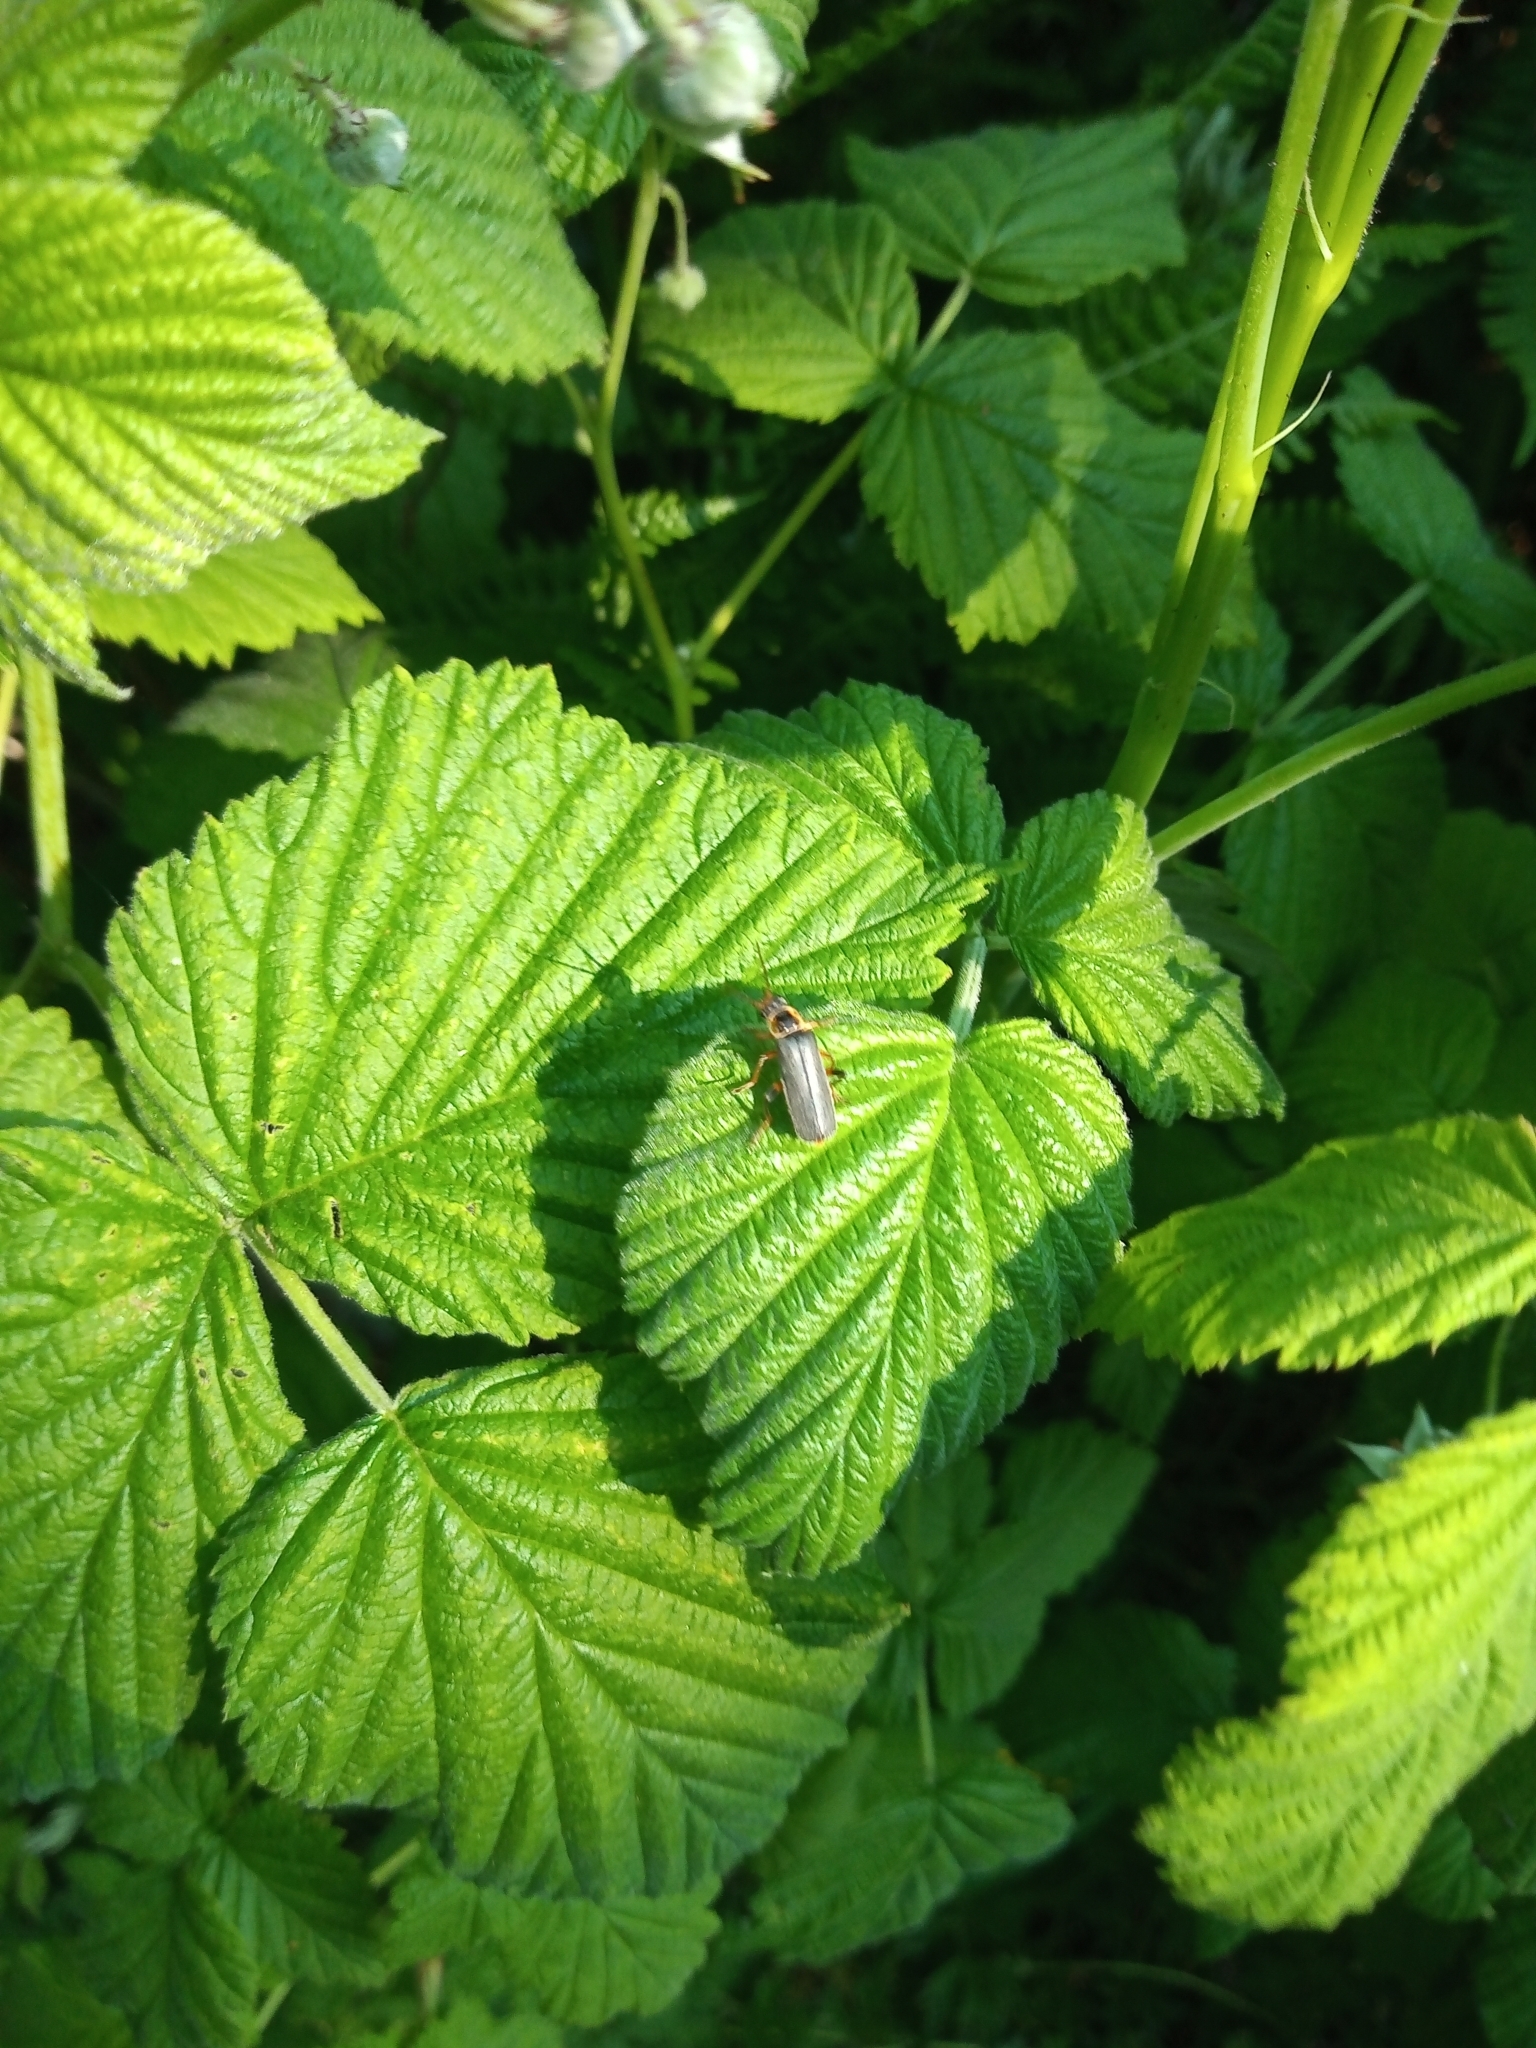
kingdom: Animalia
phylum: Arthropoda
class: Insecta
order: Coleoptera
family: Cantharidae
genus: Cantharis
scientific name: Cantharis nigricans
